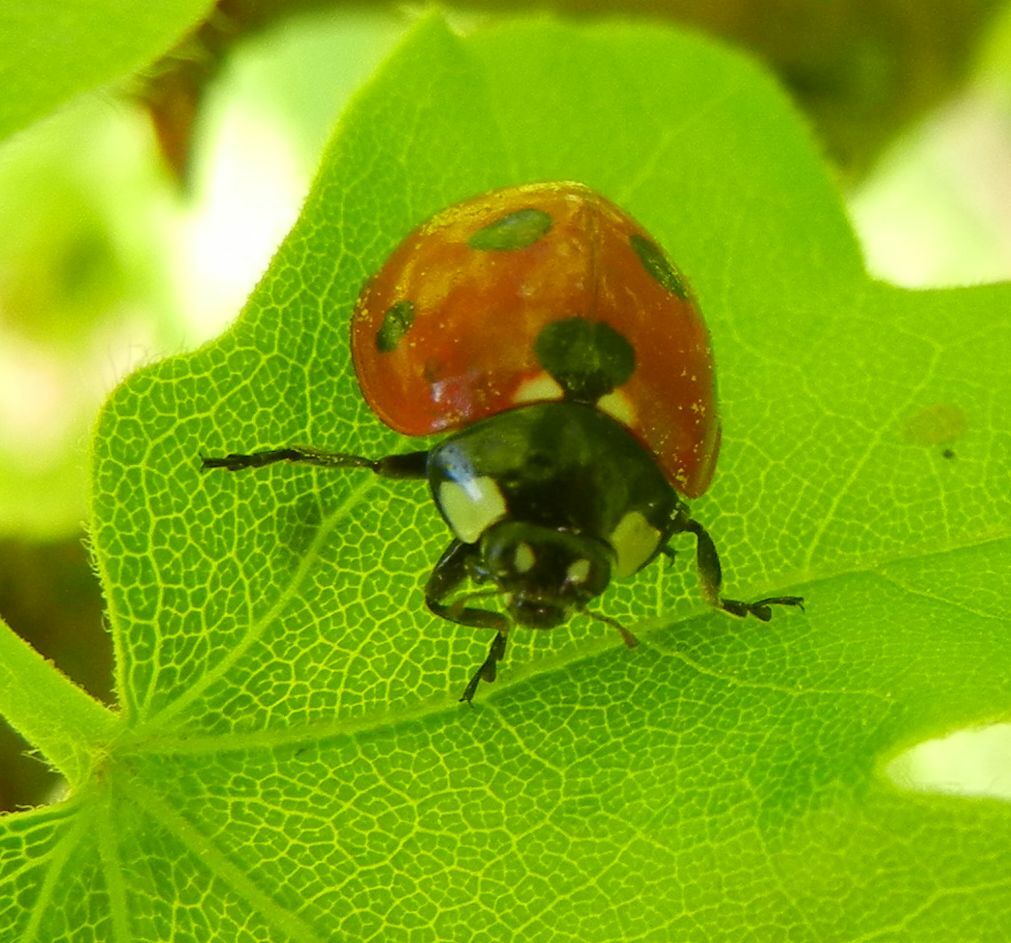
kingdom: Animalia
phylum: Arthropoda
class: Insecta
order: Coleoptera
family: Coccinellidae
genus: Coccinella
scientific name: Coccinella septempunctata
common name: Sevenspotted lady beetle
